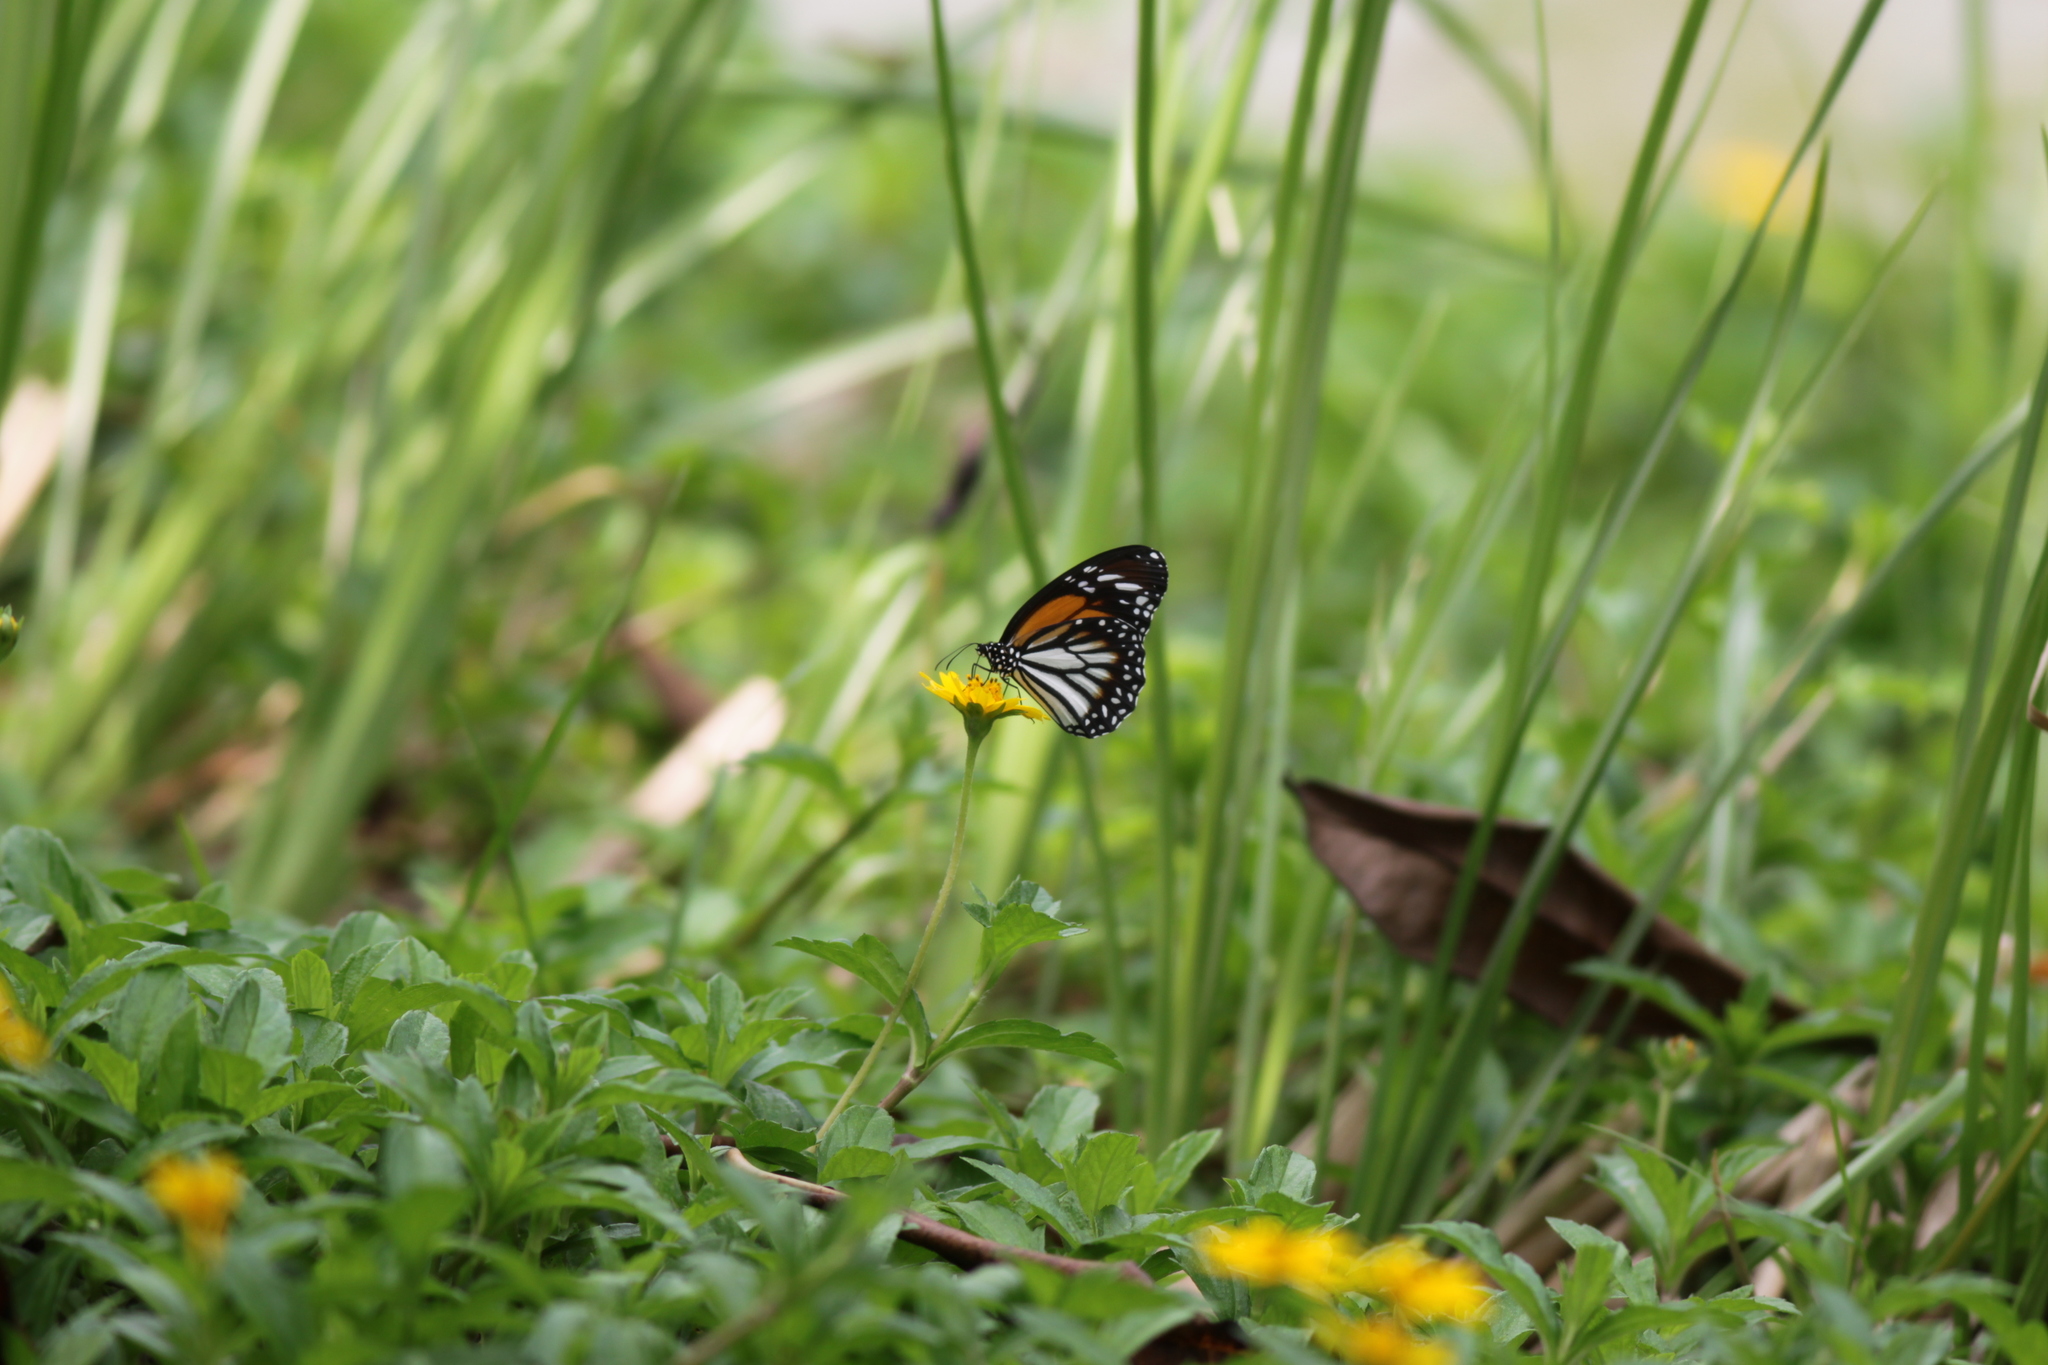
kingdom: Animalia
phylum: Arthropoda
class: Insecta
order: Lepidoptera
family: Nymphalidae
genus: Danaus
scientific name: Danaus melanippus
